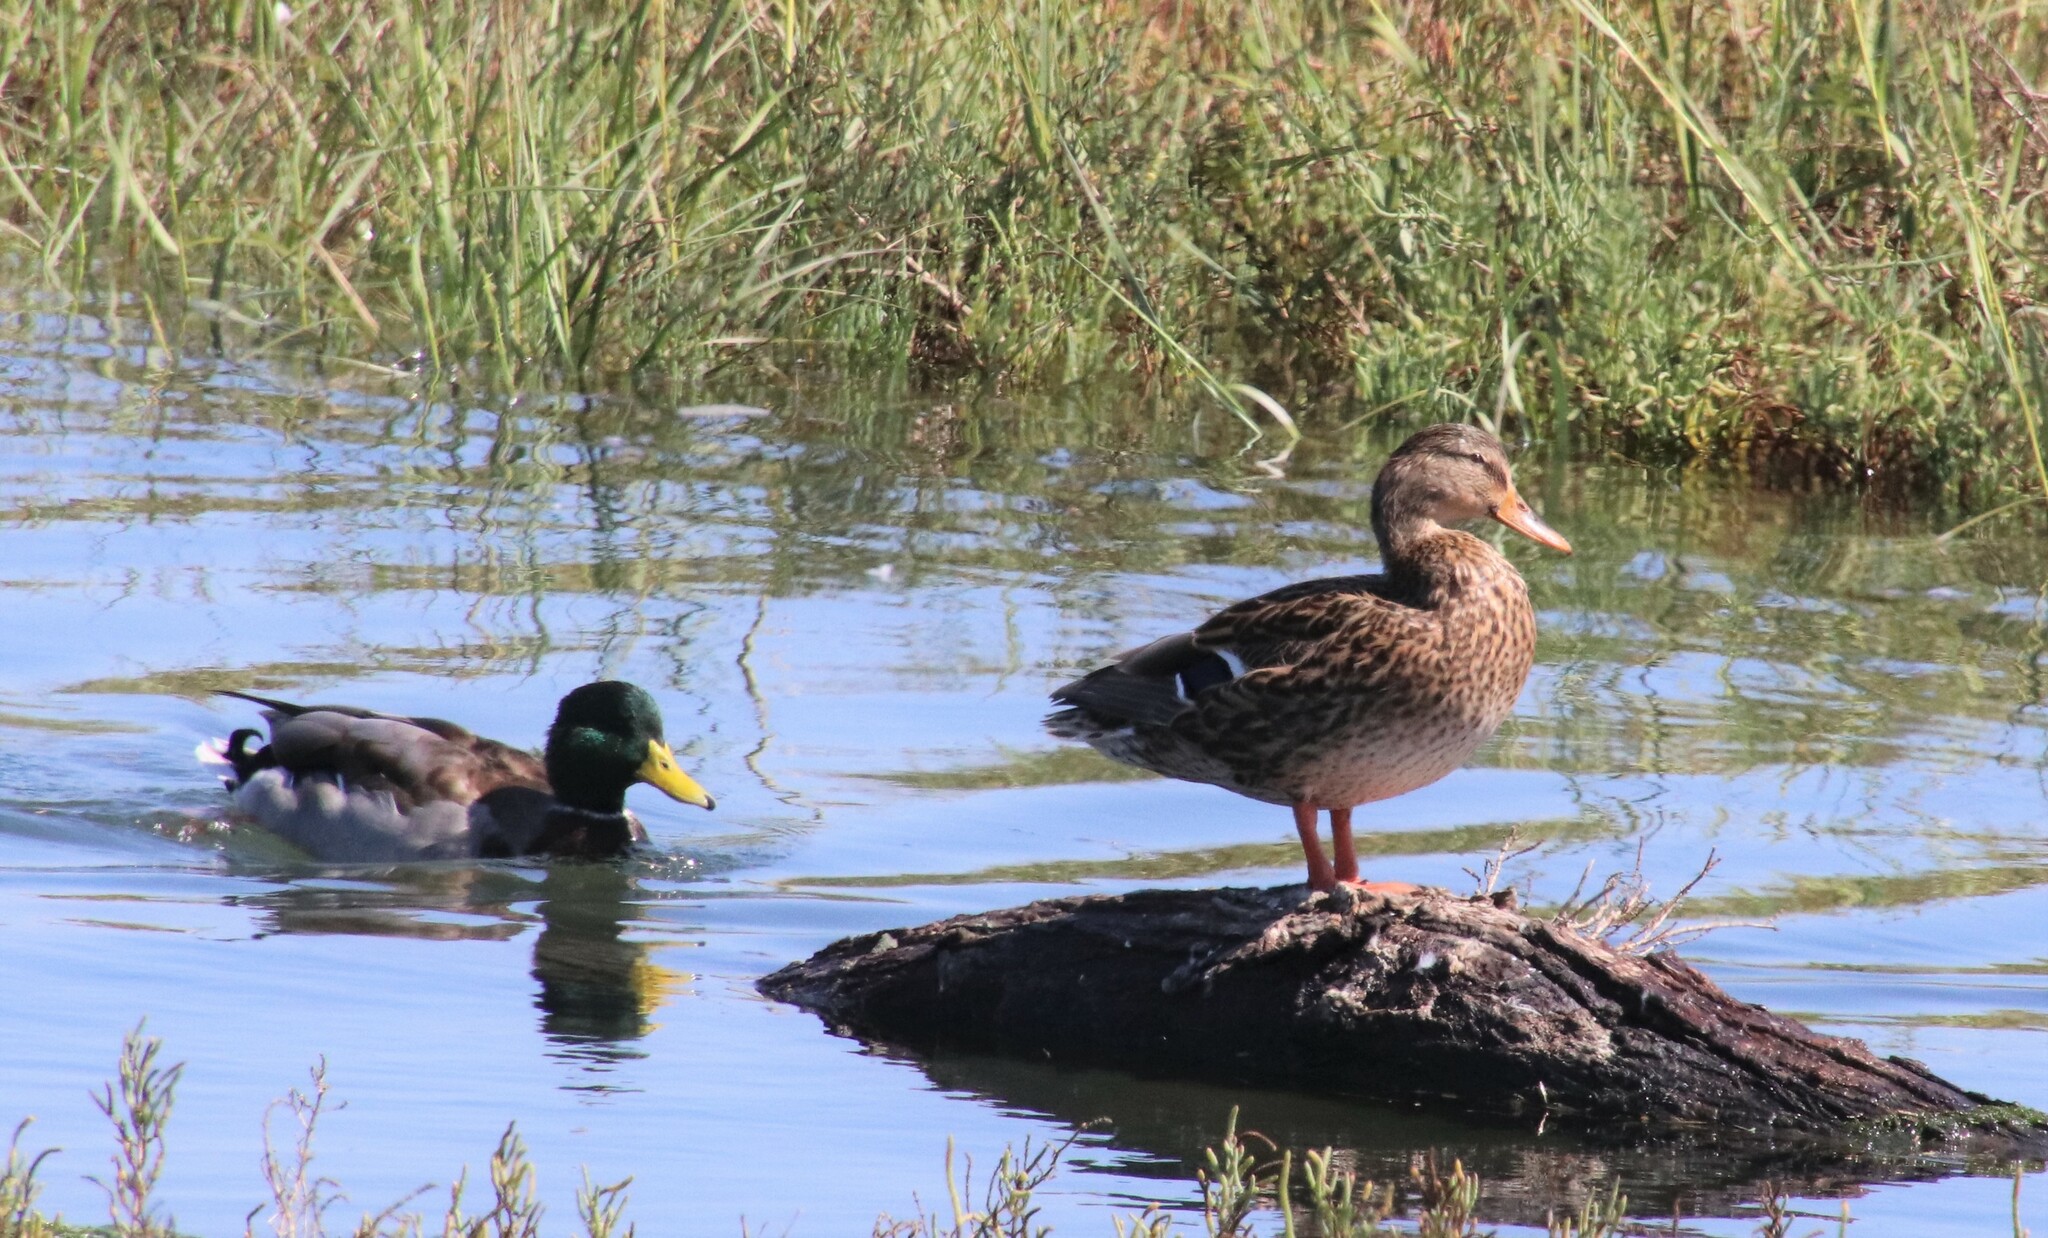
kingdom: Animalia
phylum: Chordata
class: Aves
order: Anseriformes
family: Anatidae
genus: Anas
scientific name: Anas platyrhynchos
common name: Mallard
